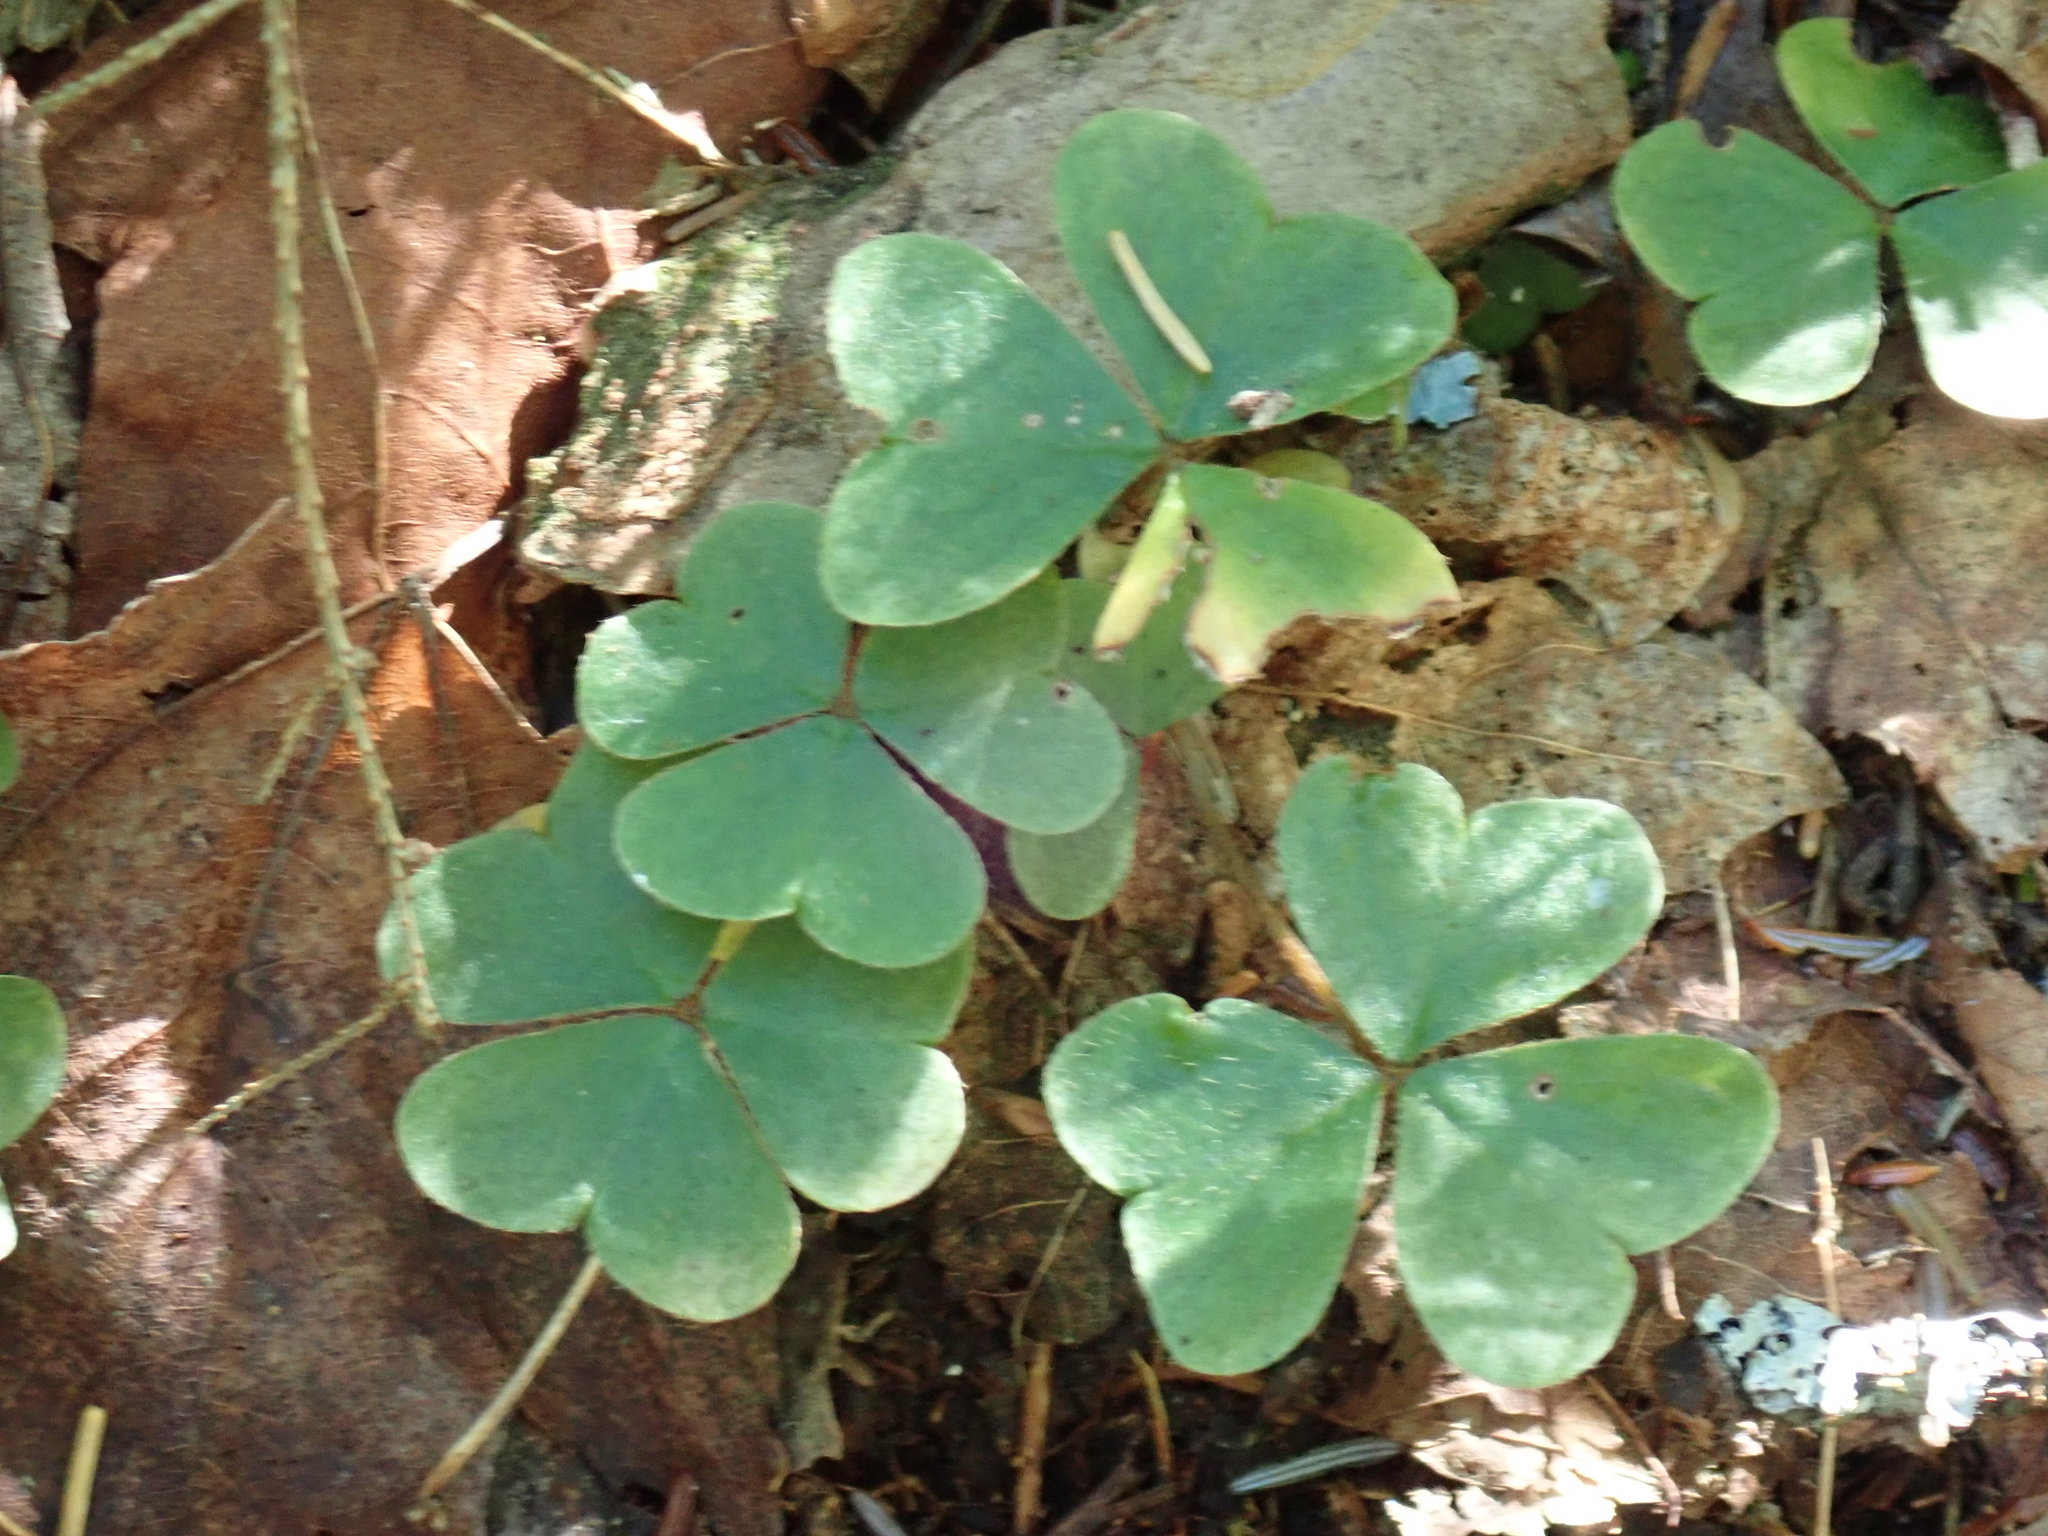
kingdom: Plantae
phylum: Tracheophyta
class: Magnoliopsida
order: Oxalidales
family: Oxalidaceae
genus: Oxalis
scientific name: Oxalis montana
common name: American wood-sorrel
